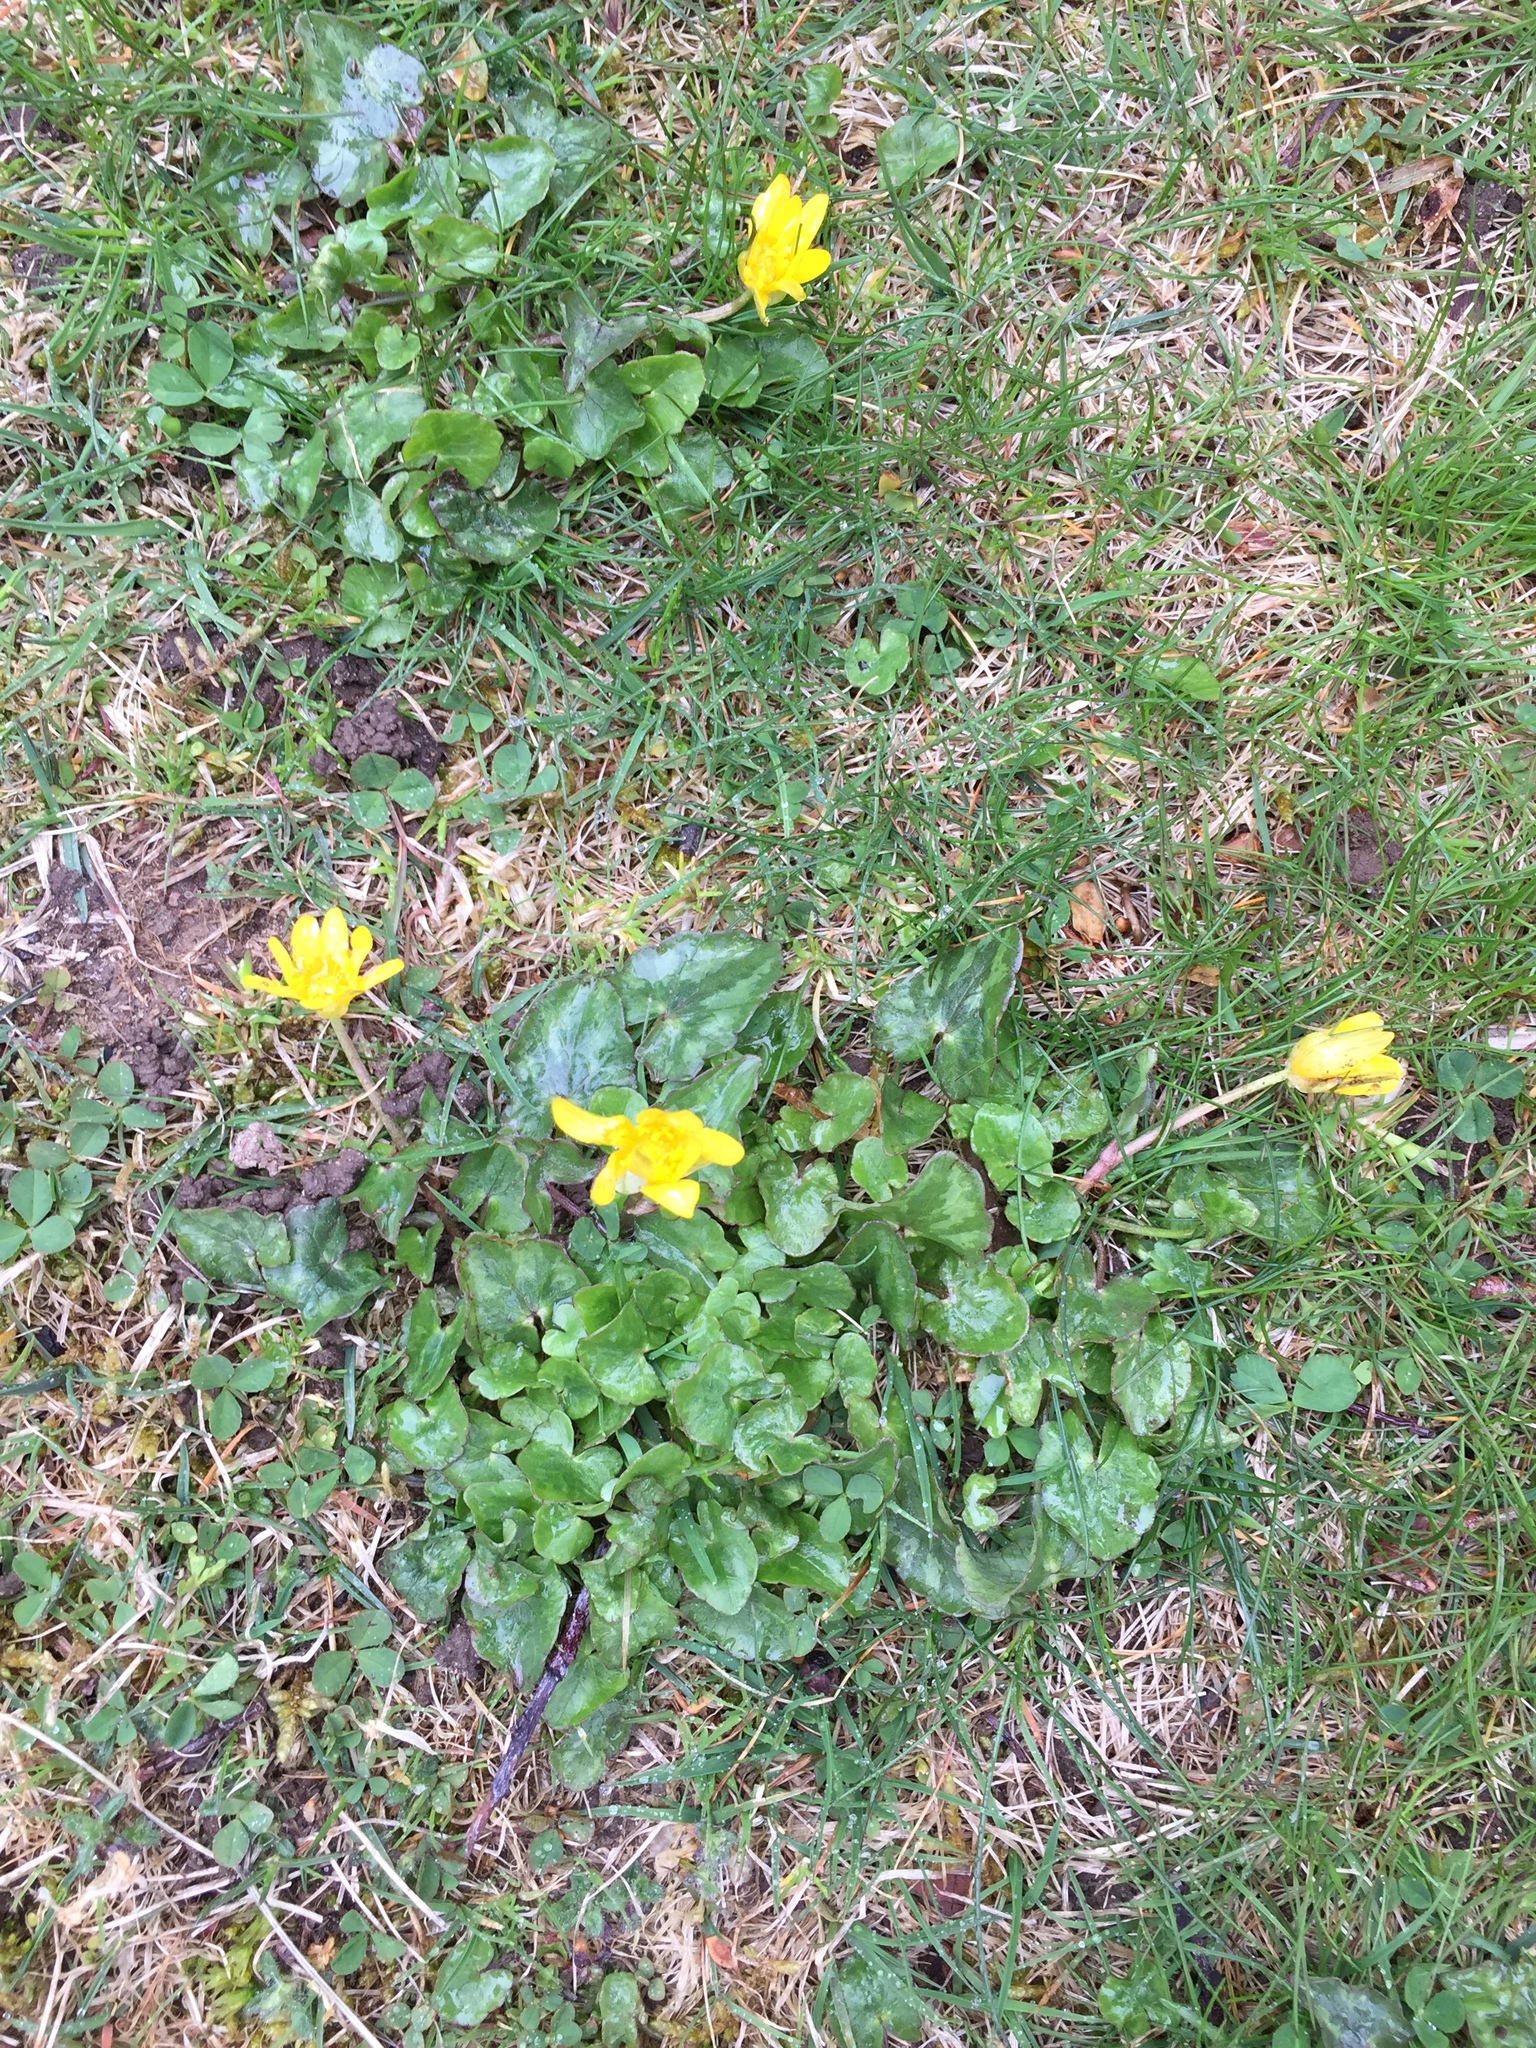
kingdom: Plantae
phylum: Tracheophyta
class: Magnoliopsida
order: Ranunculales
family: Ranunculaceae
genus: Ficaria
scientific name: Ficaria verna
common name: Lesser celandine
